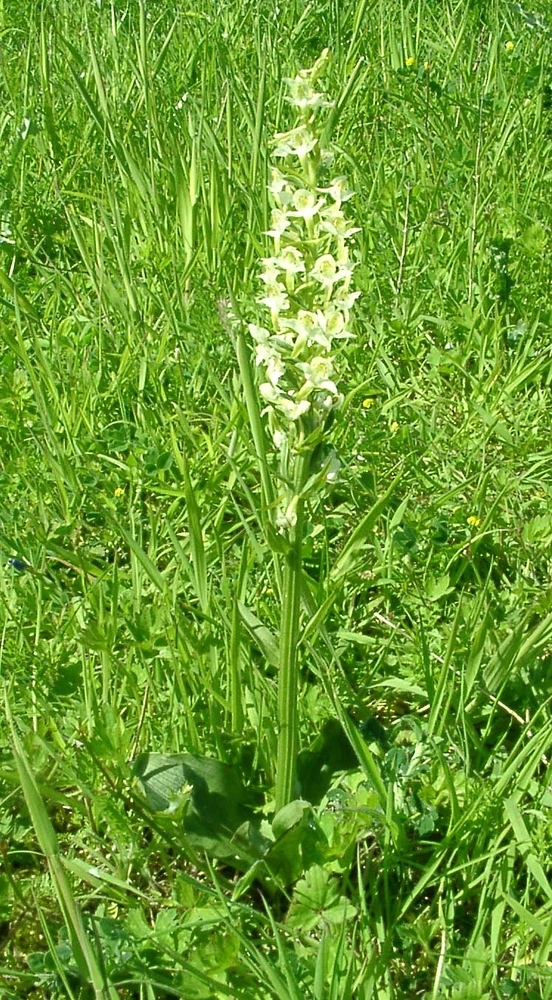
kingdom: Plantae
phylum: Tracheophyta
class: Liliopsida
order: Asparagales
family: Orchidaceae
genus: Platanthera
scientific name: Platanthera chlorantha
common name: Greater butterfly-orchid
